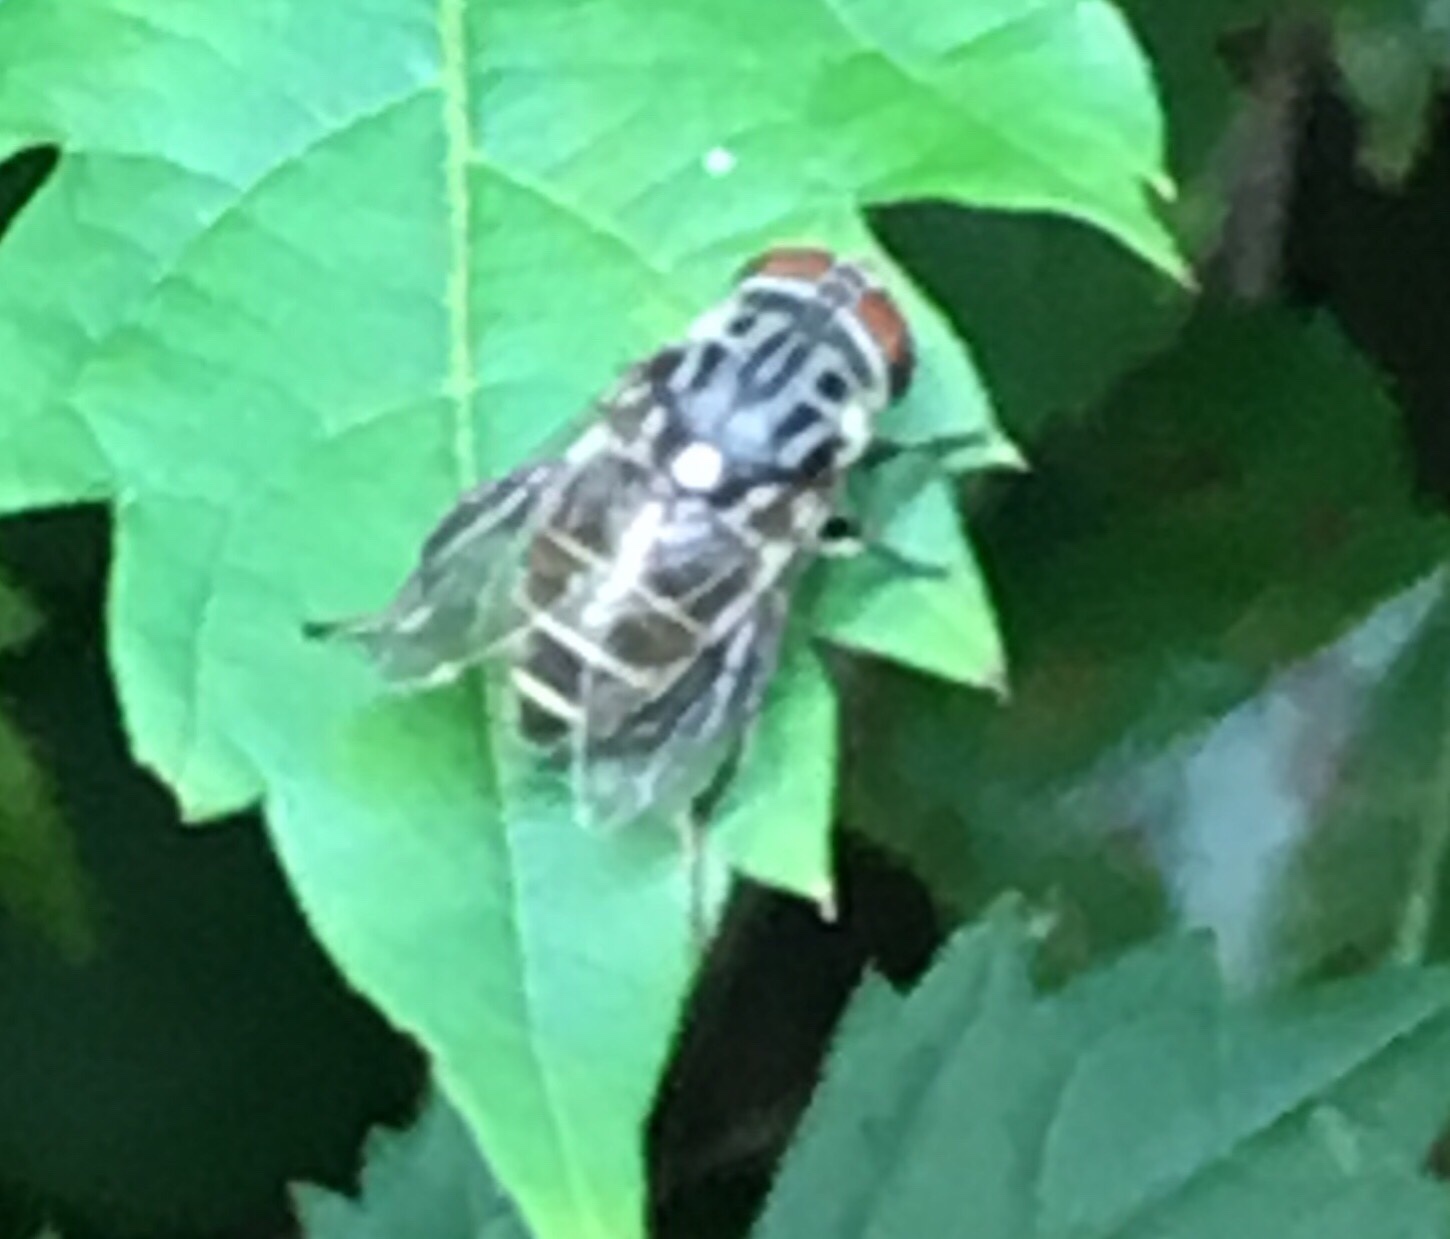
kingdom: Animalia
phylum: Arthropoda
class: Insecta
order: Diptera
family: Syrphidae
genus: Palpada
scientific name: Palpada furcata
